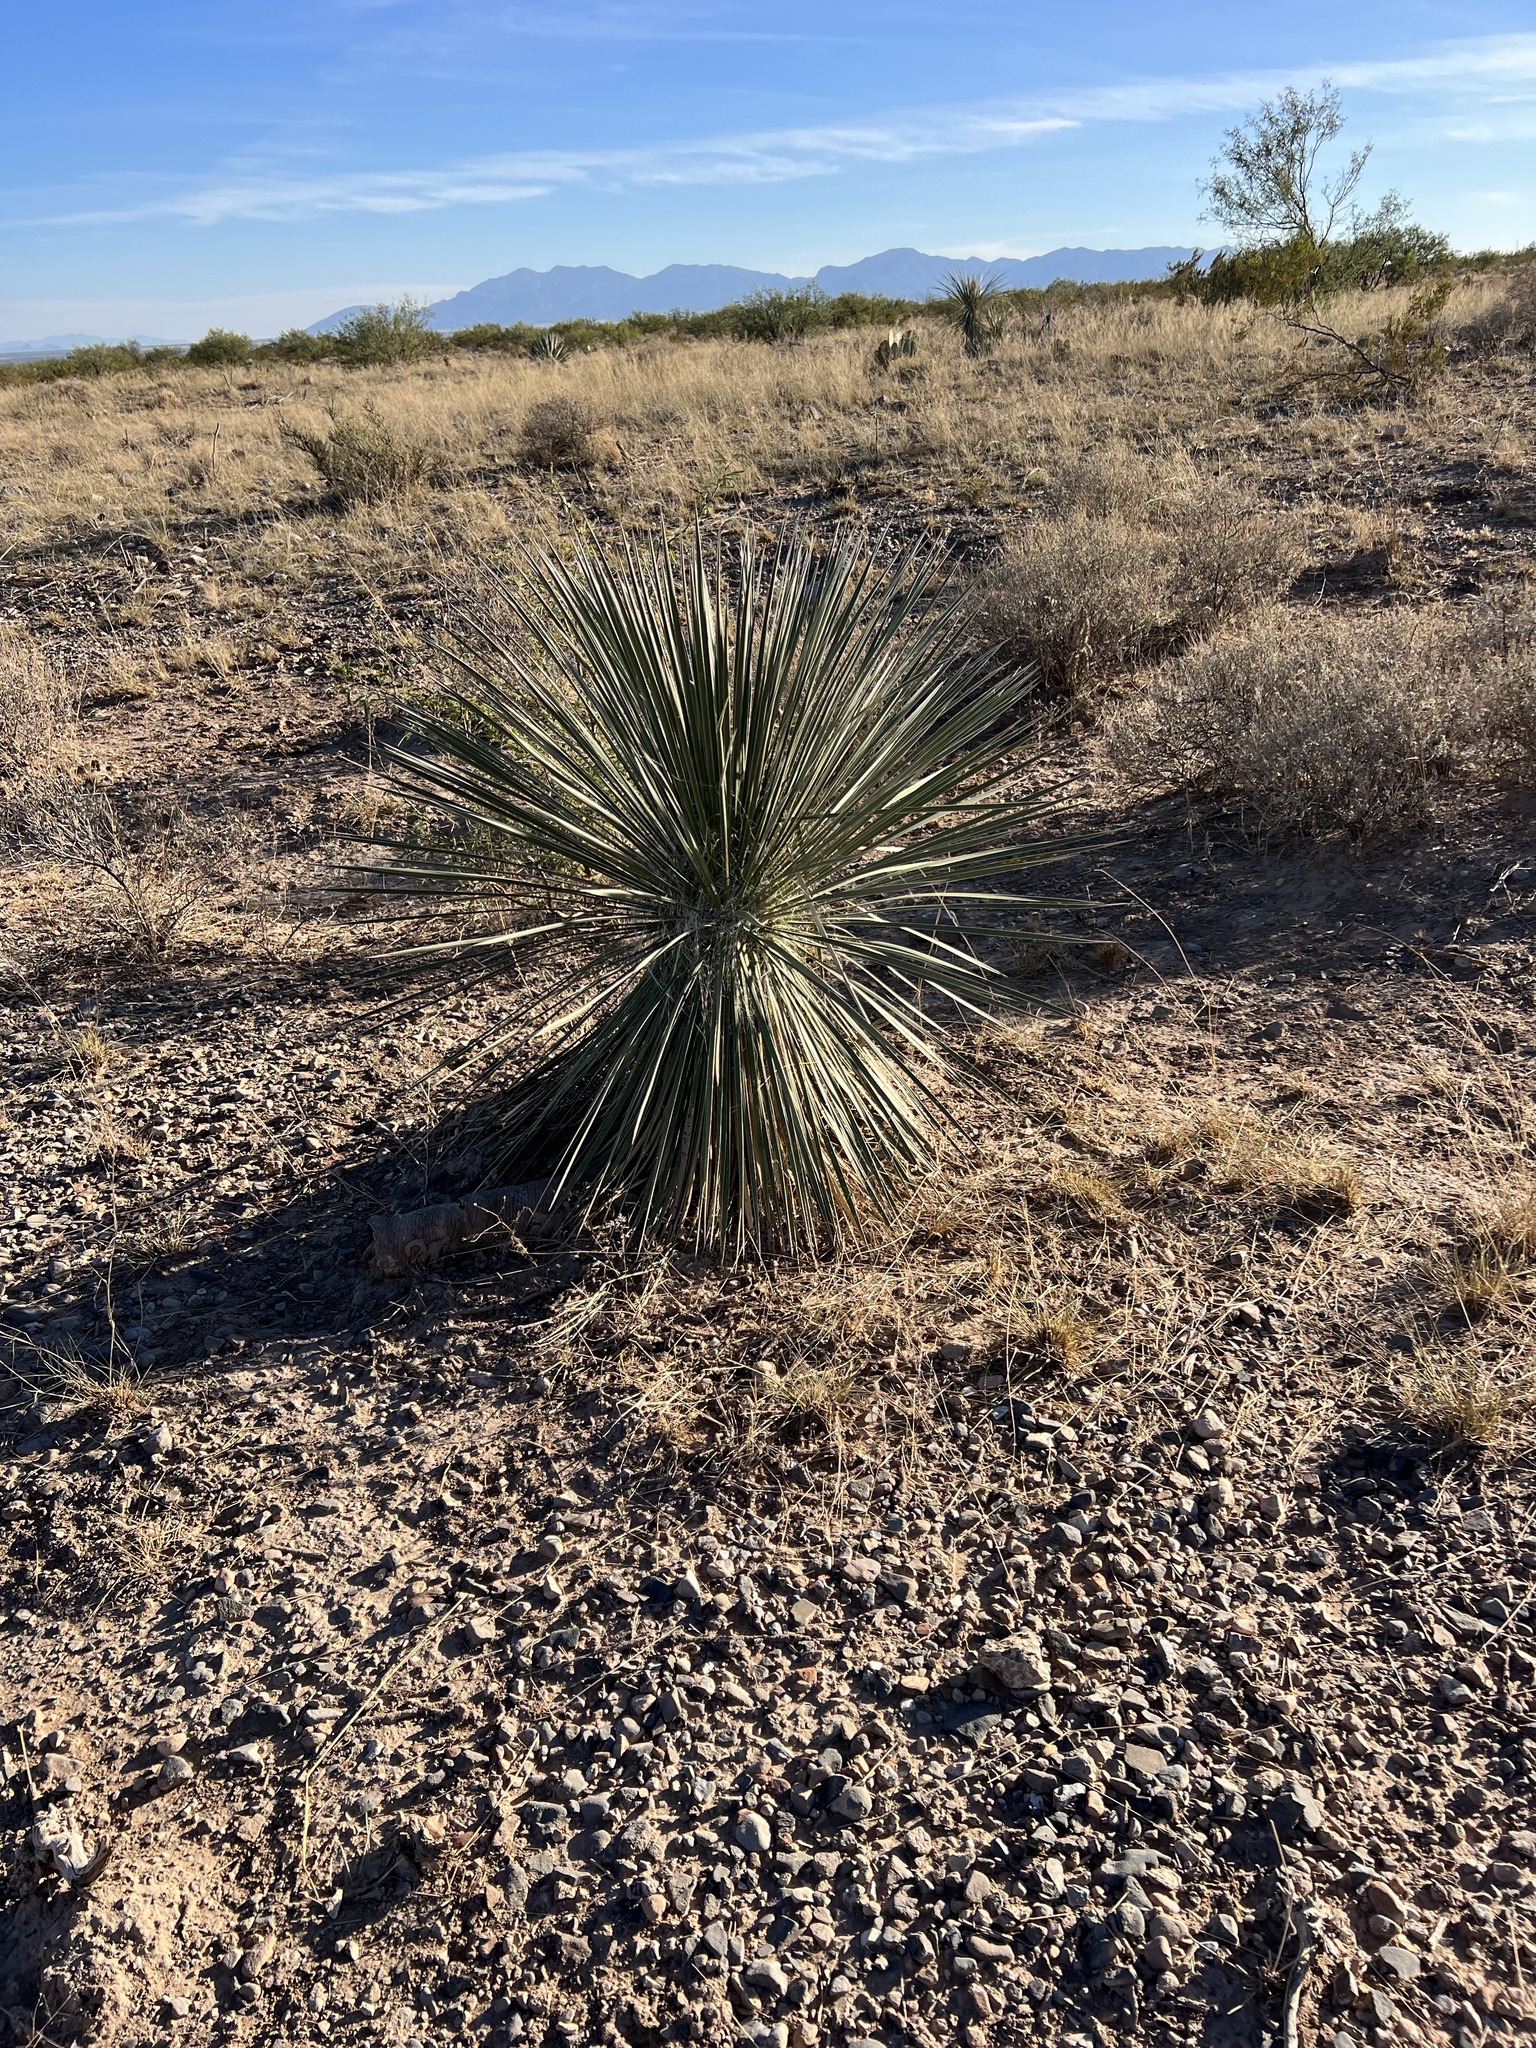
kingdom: Plantae
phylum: Tracheophyta
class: Liliopsida
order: Asparagales
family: Asparagaceae
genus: Yucca
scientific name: Yucca elata
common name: Palmella
